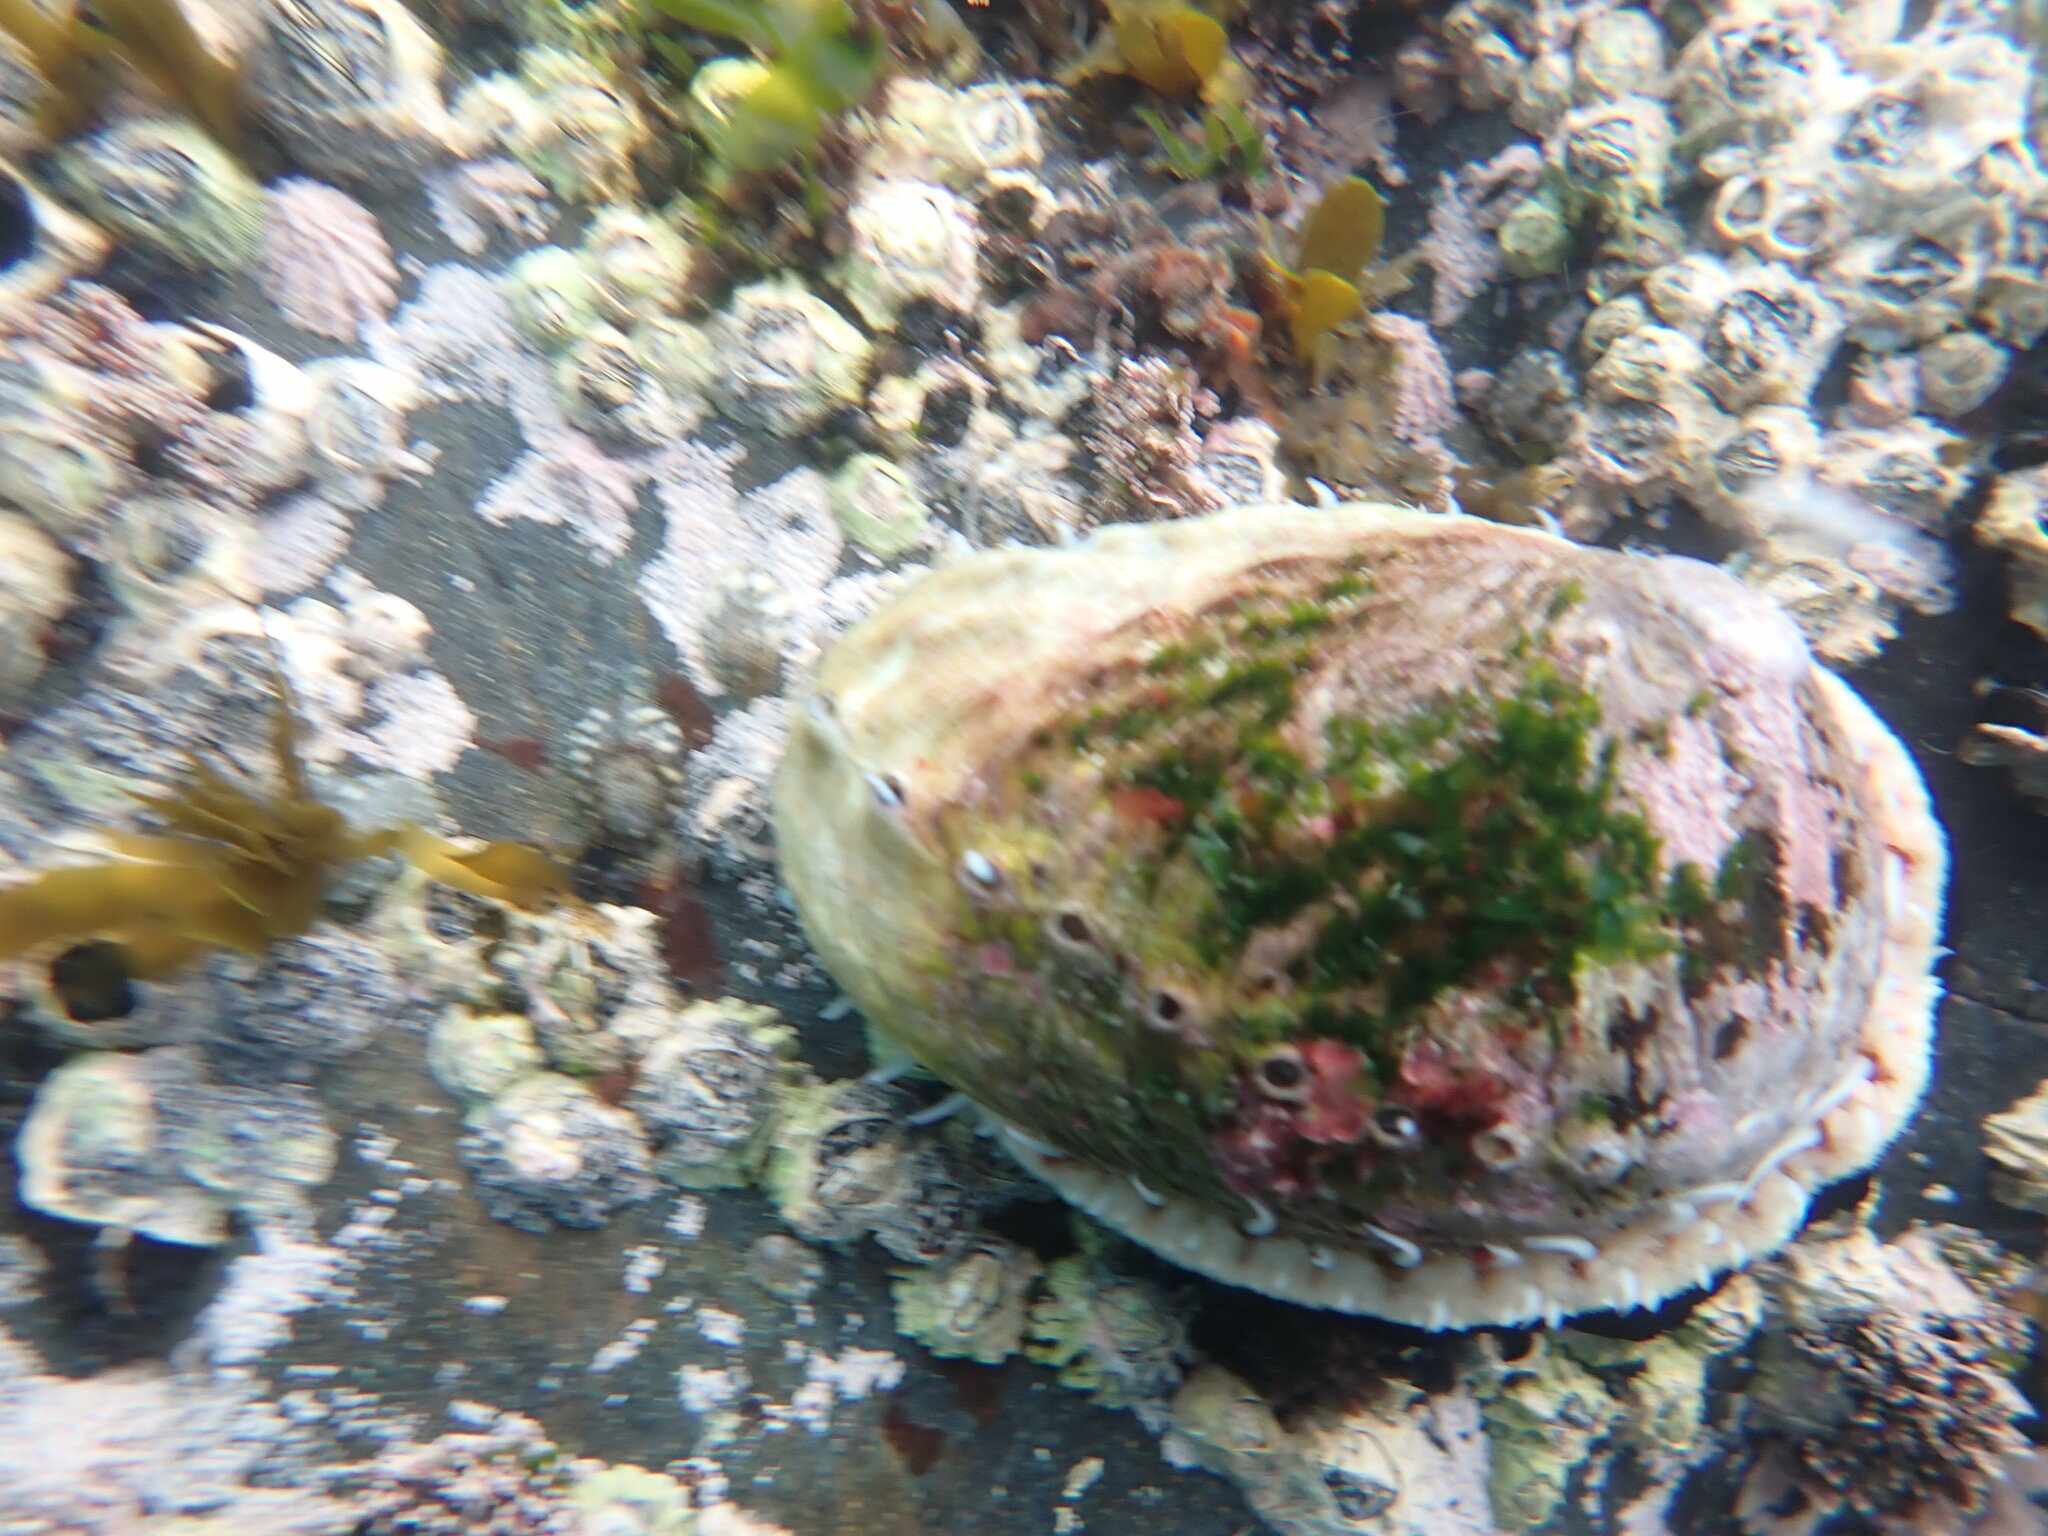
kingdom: Animalia
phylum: Mollusca
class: Gastropoda
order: Lepetellida
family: Haliotidae
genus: Haliotis
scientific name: Haliotis australis
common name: Silver abalone
